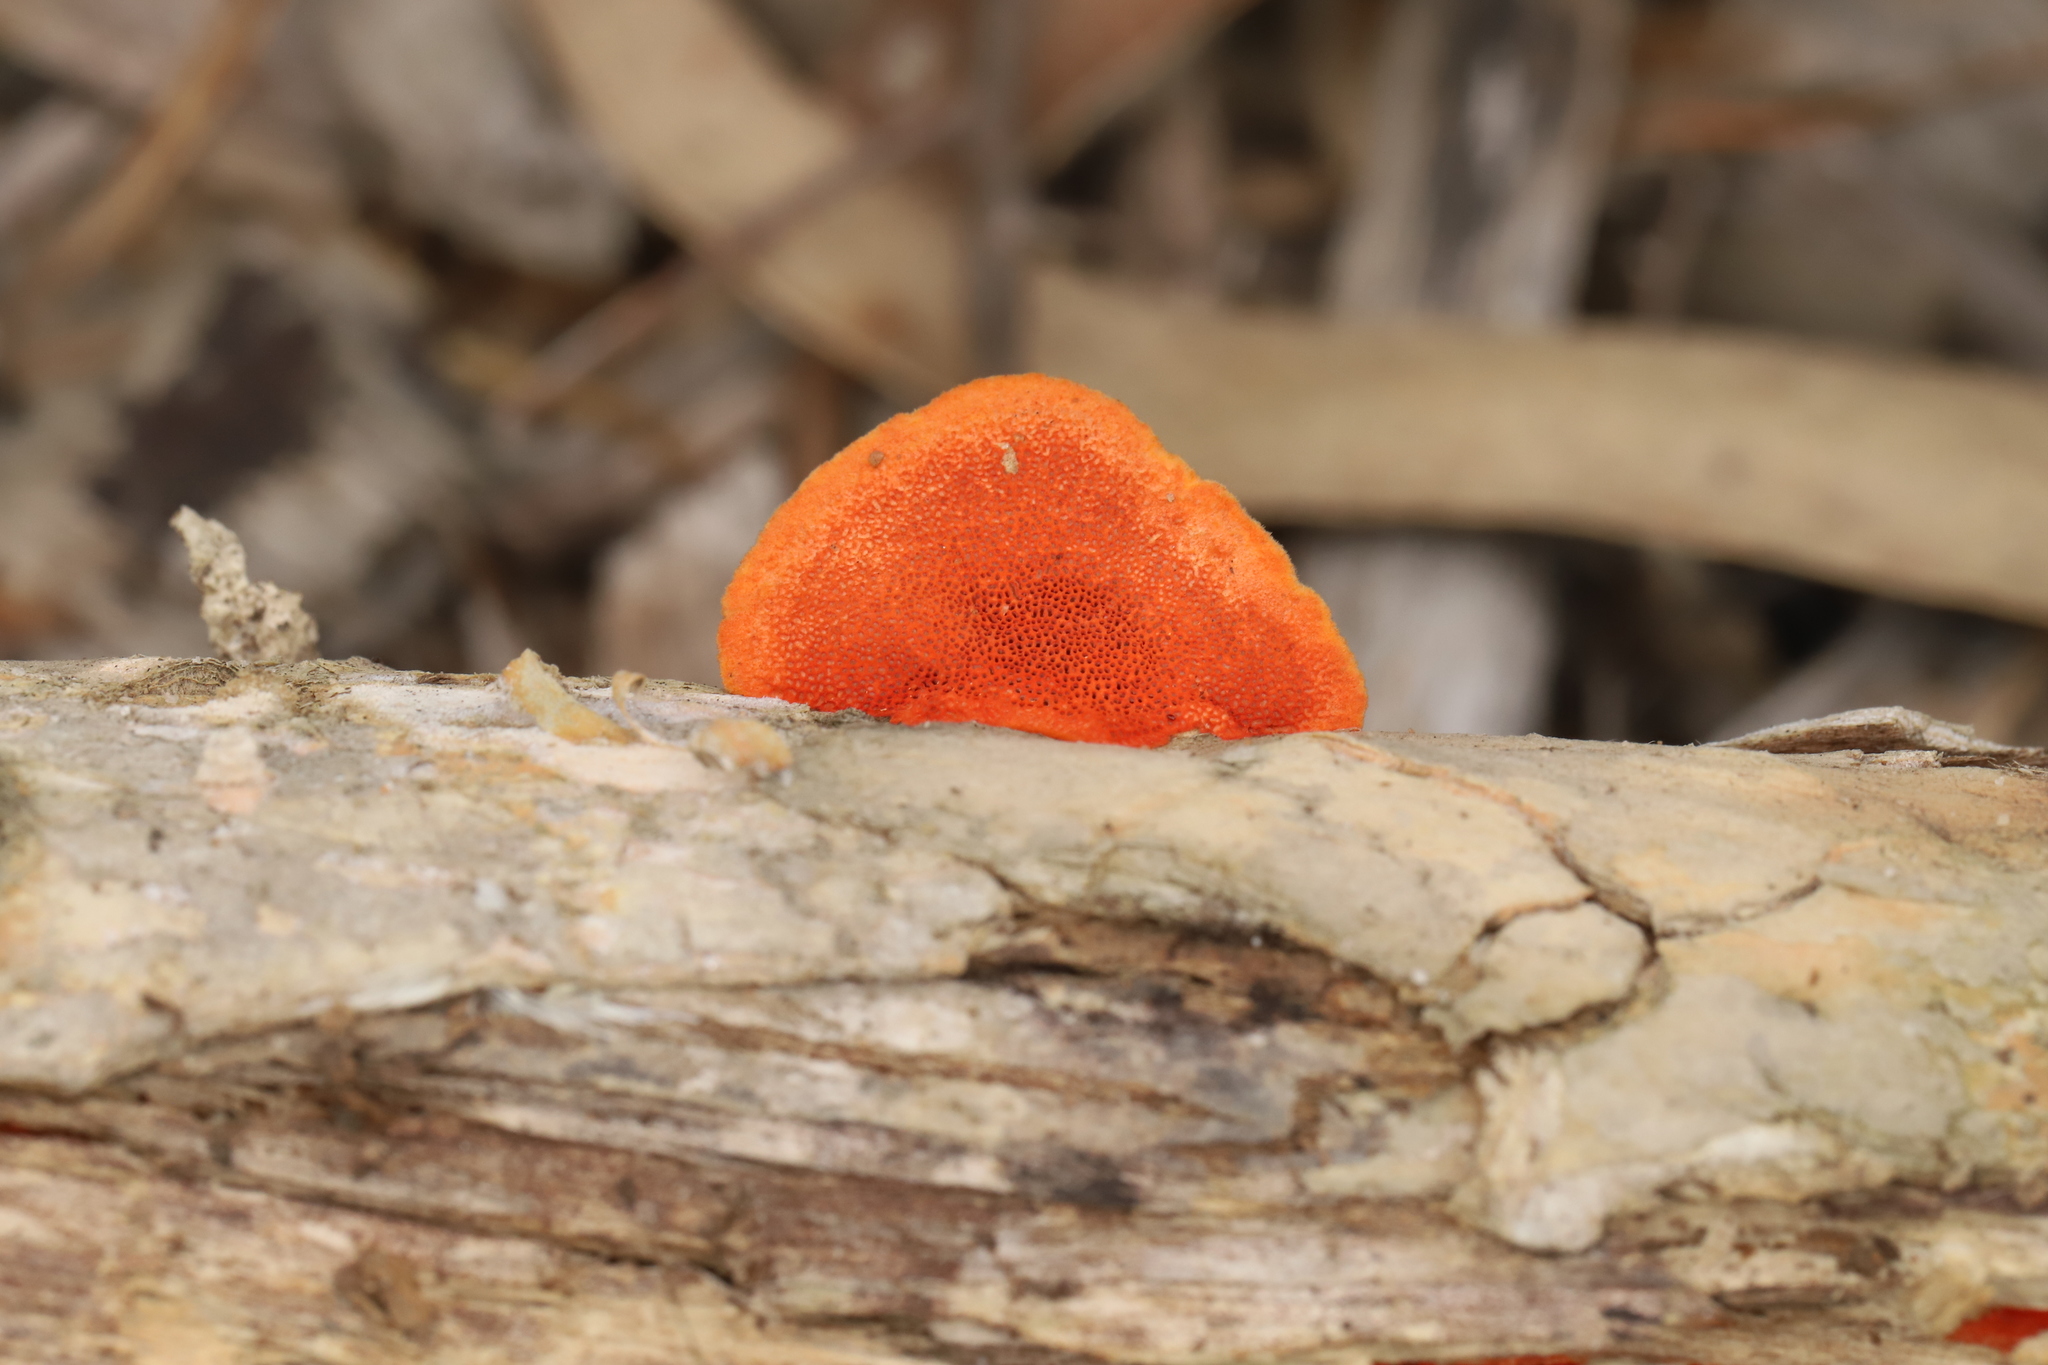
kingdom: Fungi
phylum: Basidiomycota
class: Agaricomycetes
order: Polyporales
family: Polyporaceae
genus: Trametes
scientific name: Trametes coccinea
